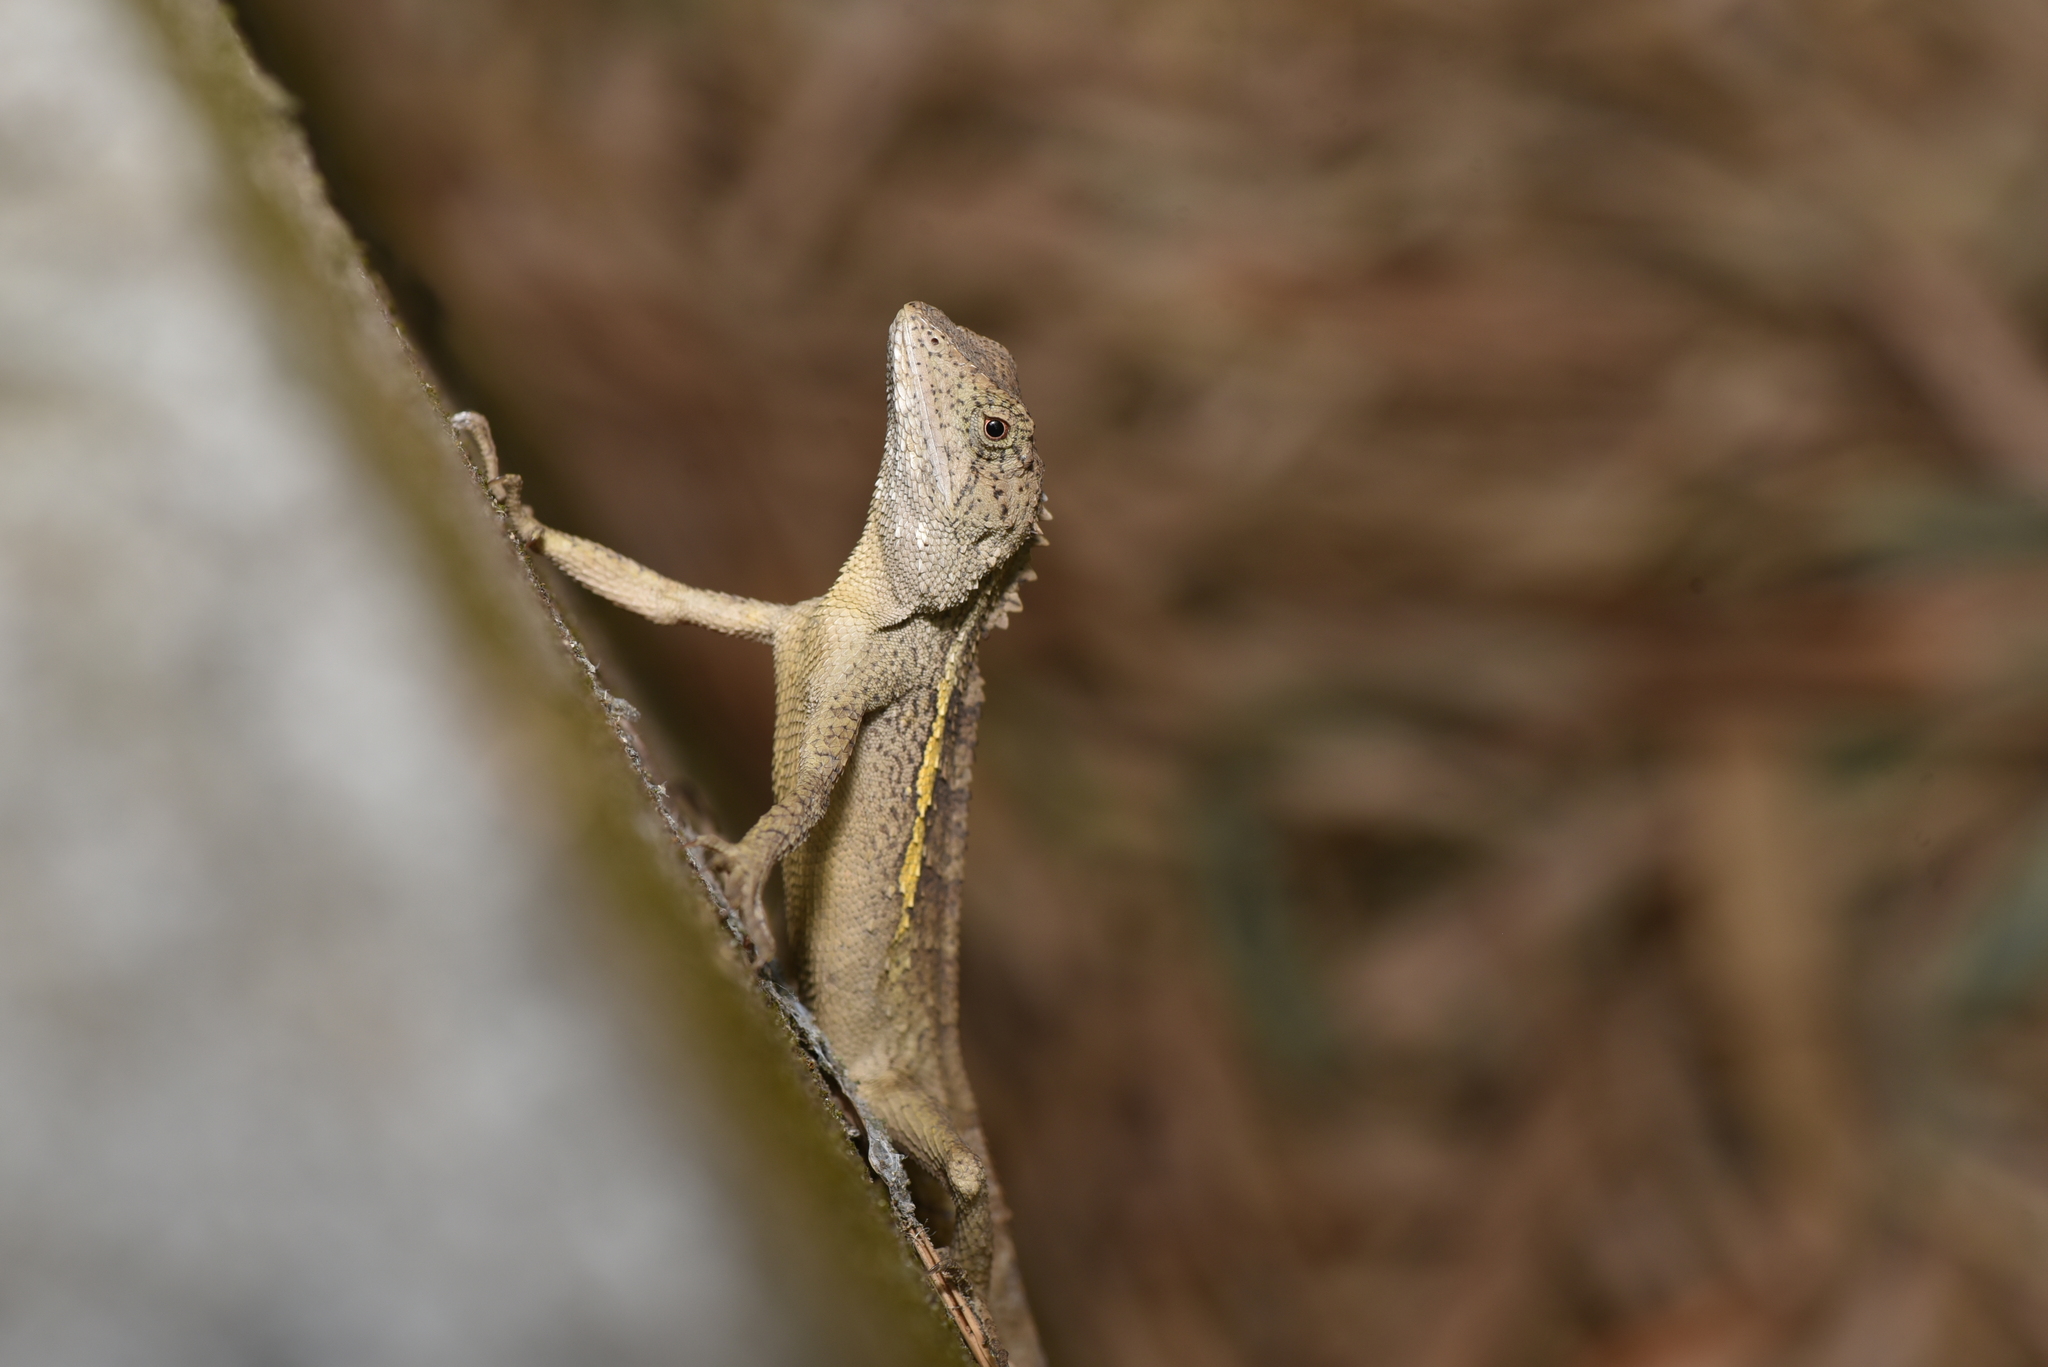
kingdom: Animalia
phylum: Chordata
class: Squamata
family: Agamidae
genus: Diploderma
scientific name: Diploderma swinhonis
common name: Taiwan japalure
